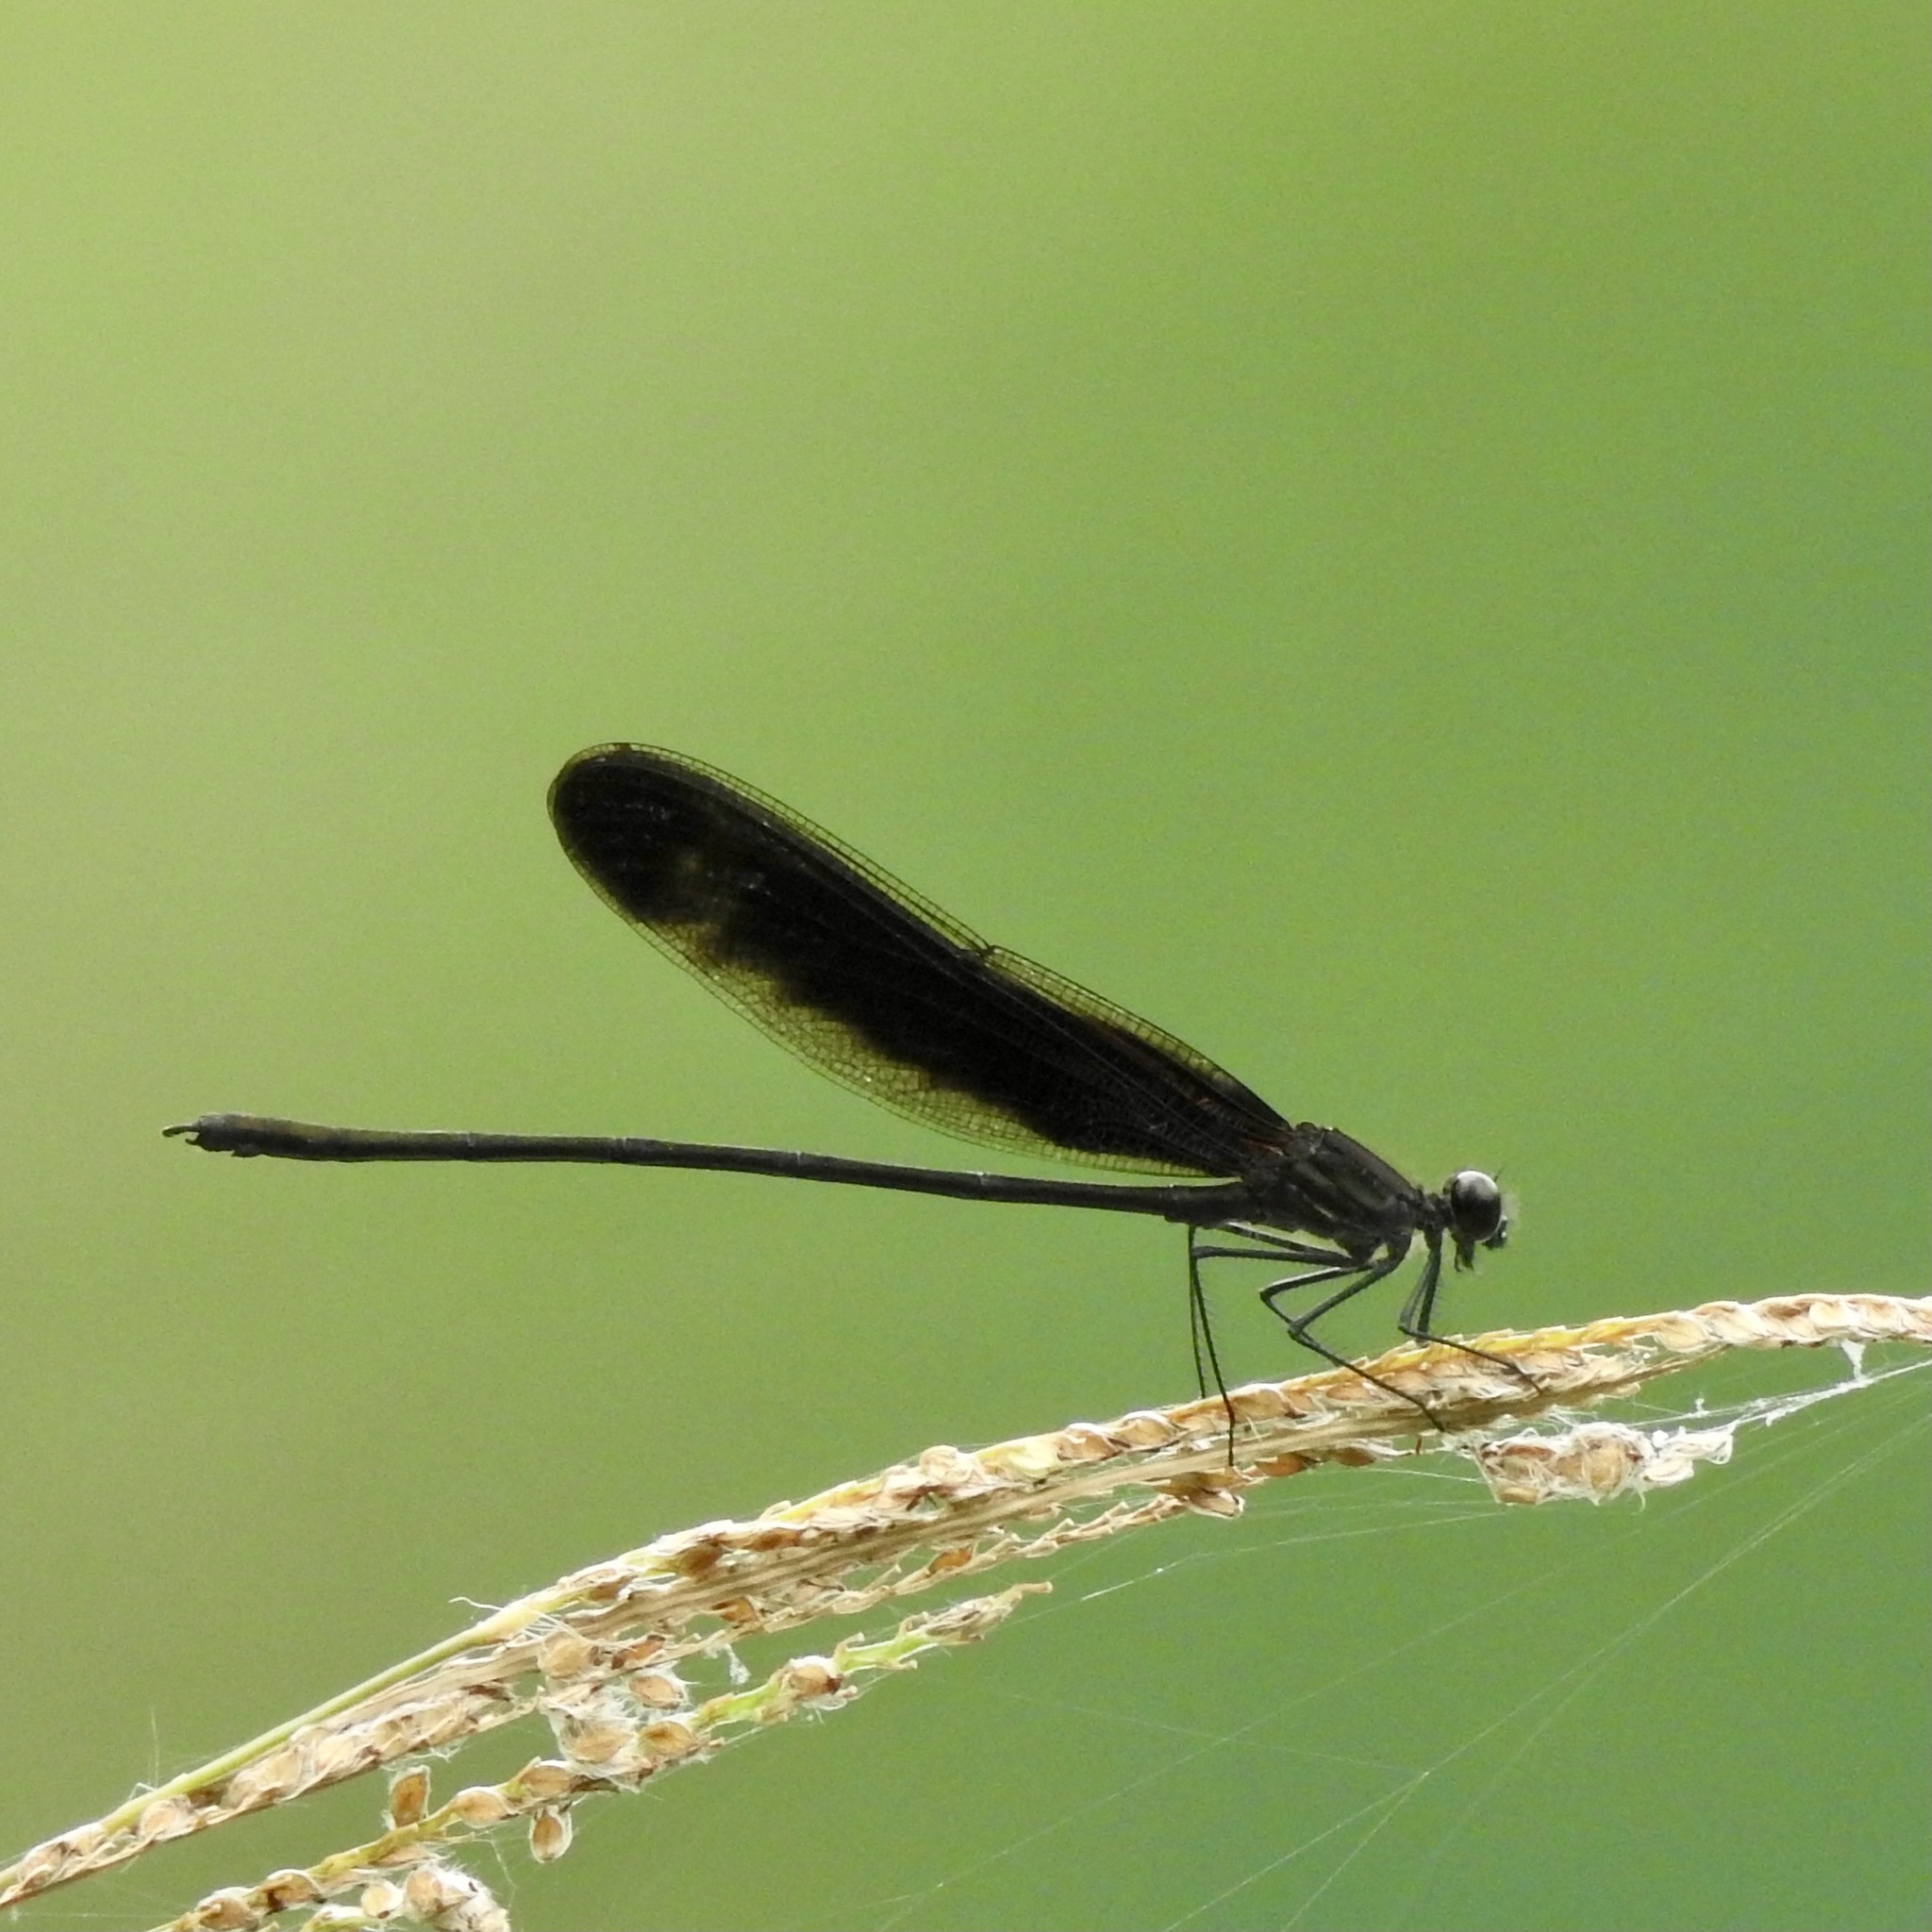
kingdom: Animalia
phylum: Arthropoda
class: Insecta
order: Odonata
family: Calopterygidae
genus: Hetaerina
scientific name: Hetaerina titia
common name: Smoky rubyspot
